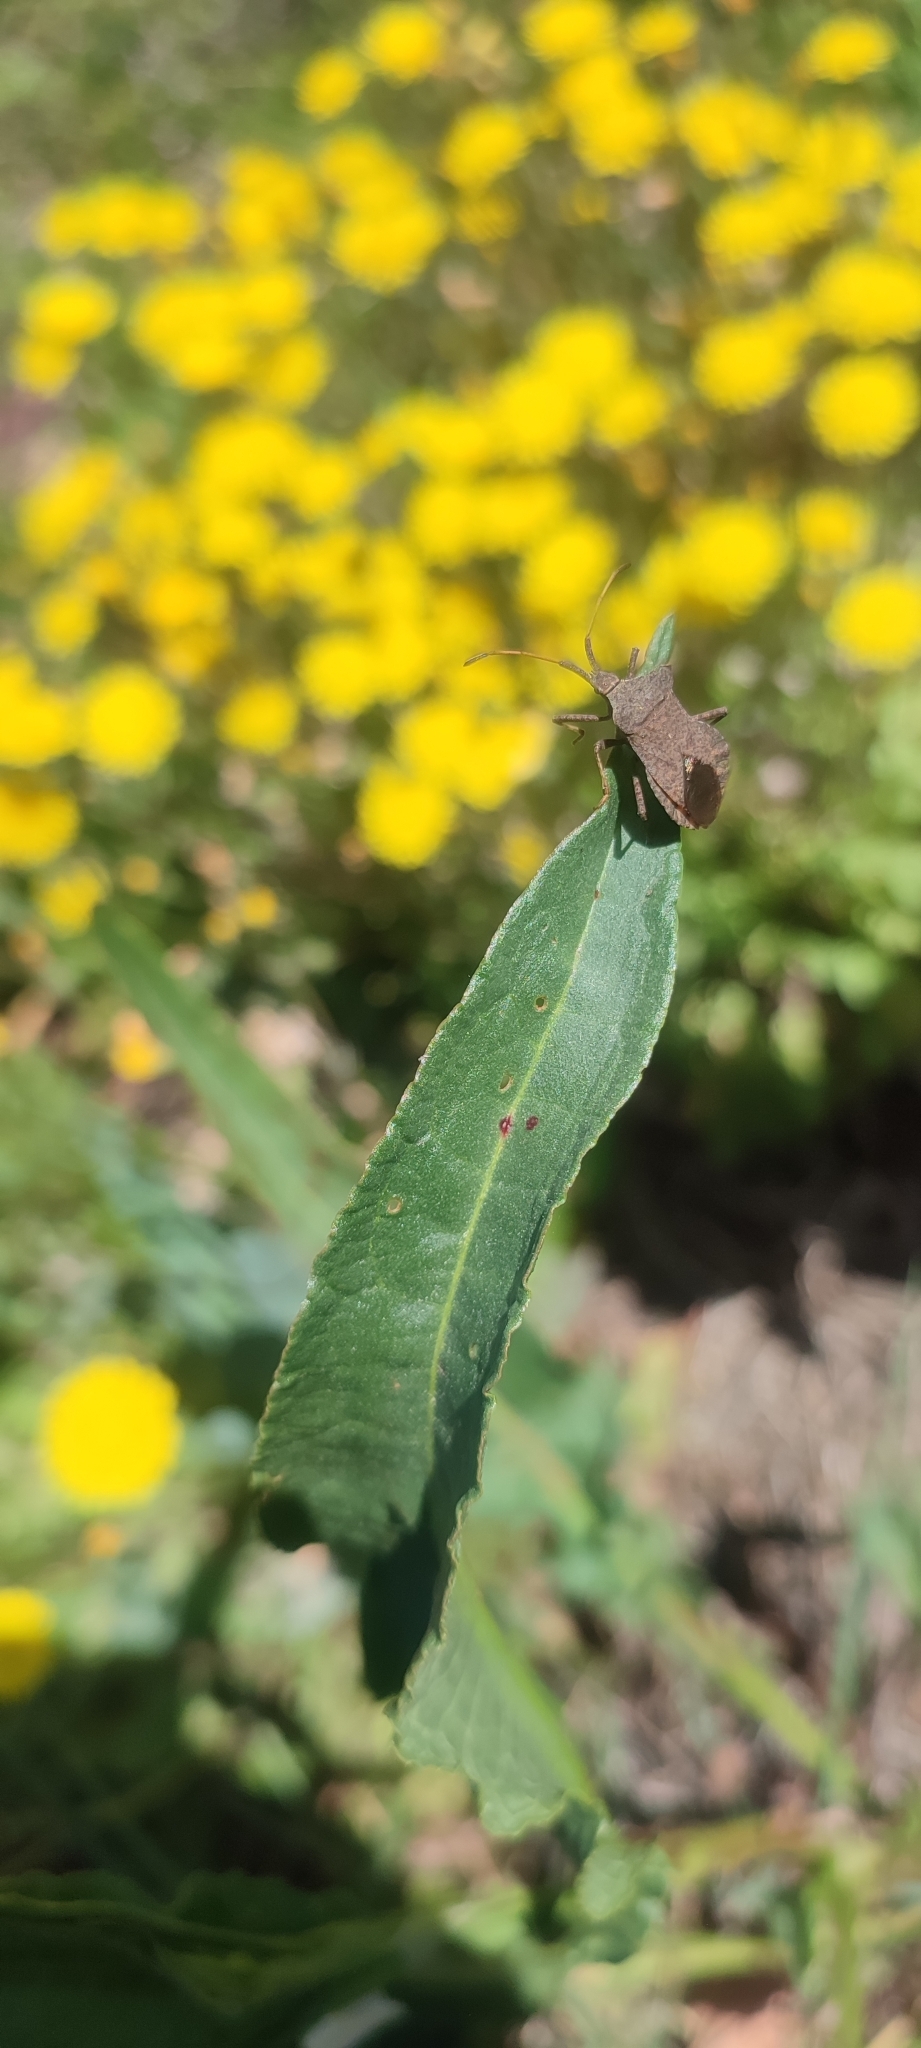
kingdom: Animalia
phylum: Arthropoda
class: Insecta
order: Hemiptera
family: Coreidae
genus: Coreus
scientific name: Coreus marginatus
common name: Dock bug
